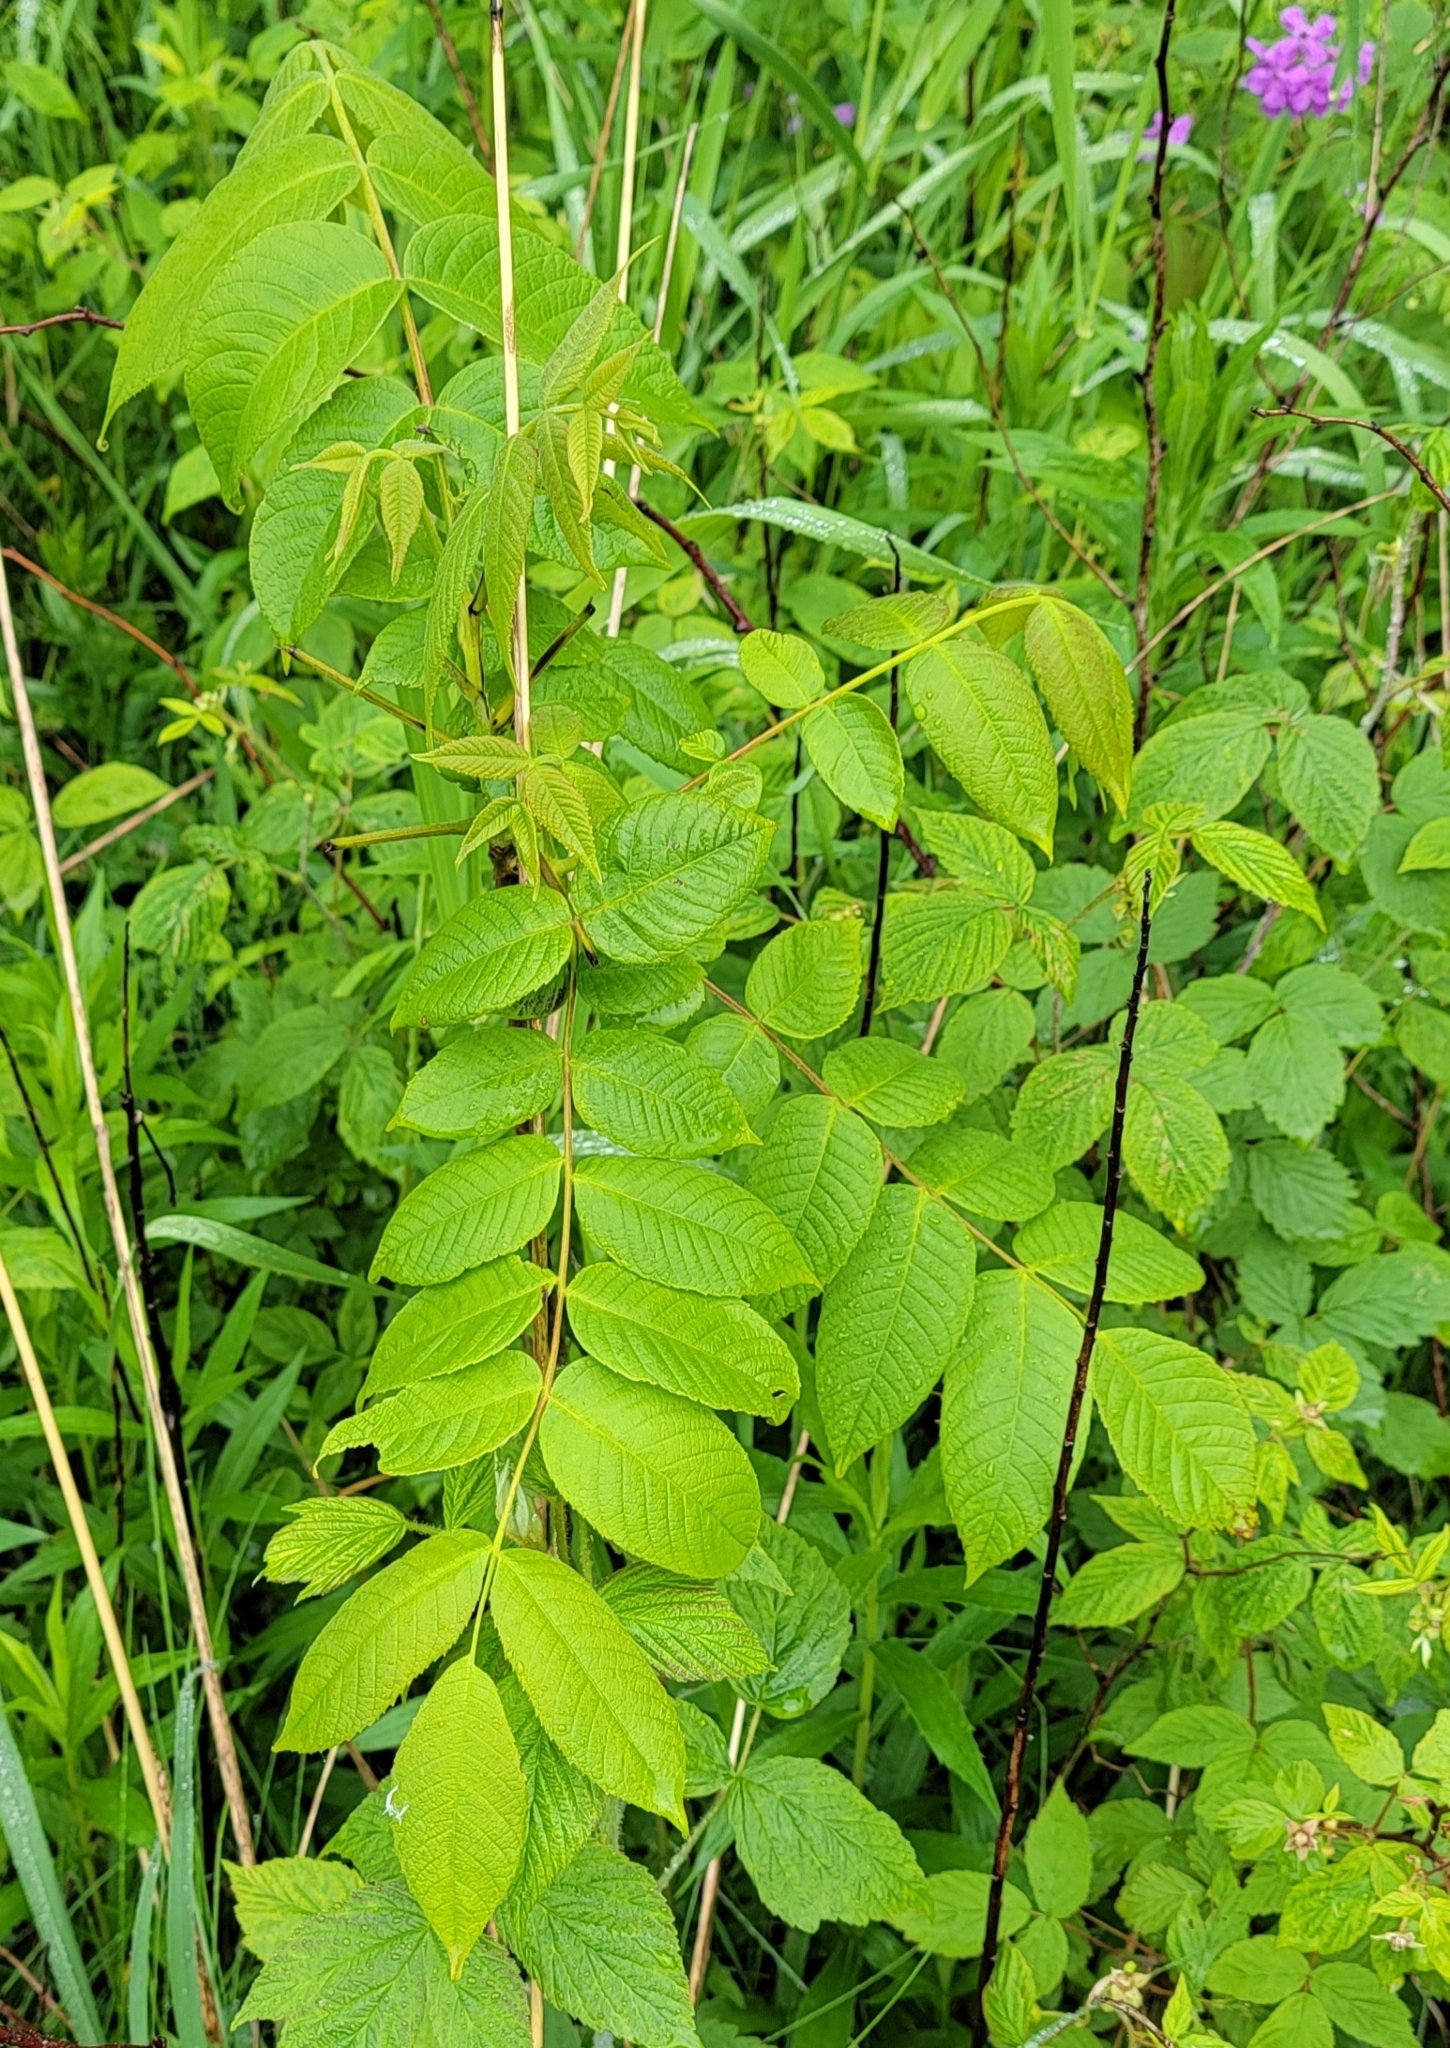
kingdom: Plantae
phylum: Tracheophyta
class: Magnoliopsida
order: Fagales
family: Juglandaceae
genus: Juglans
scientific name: Juglans nigra
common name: Black walnut
